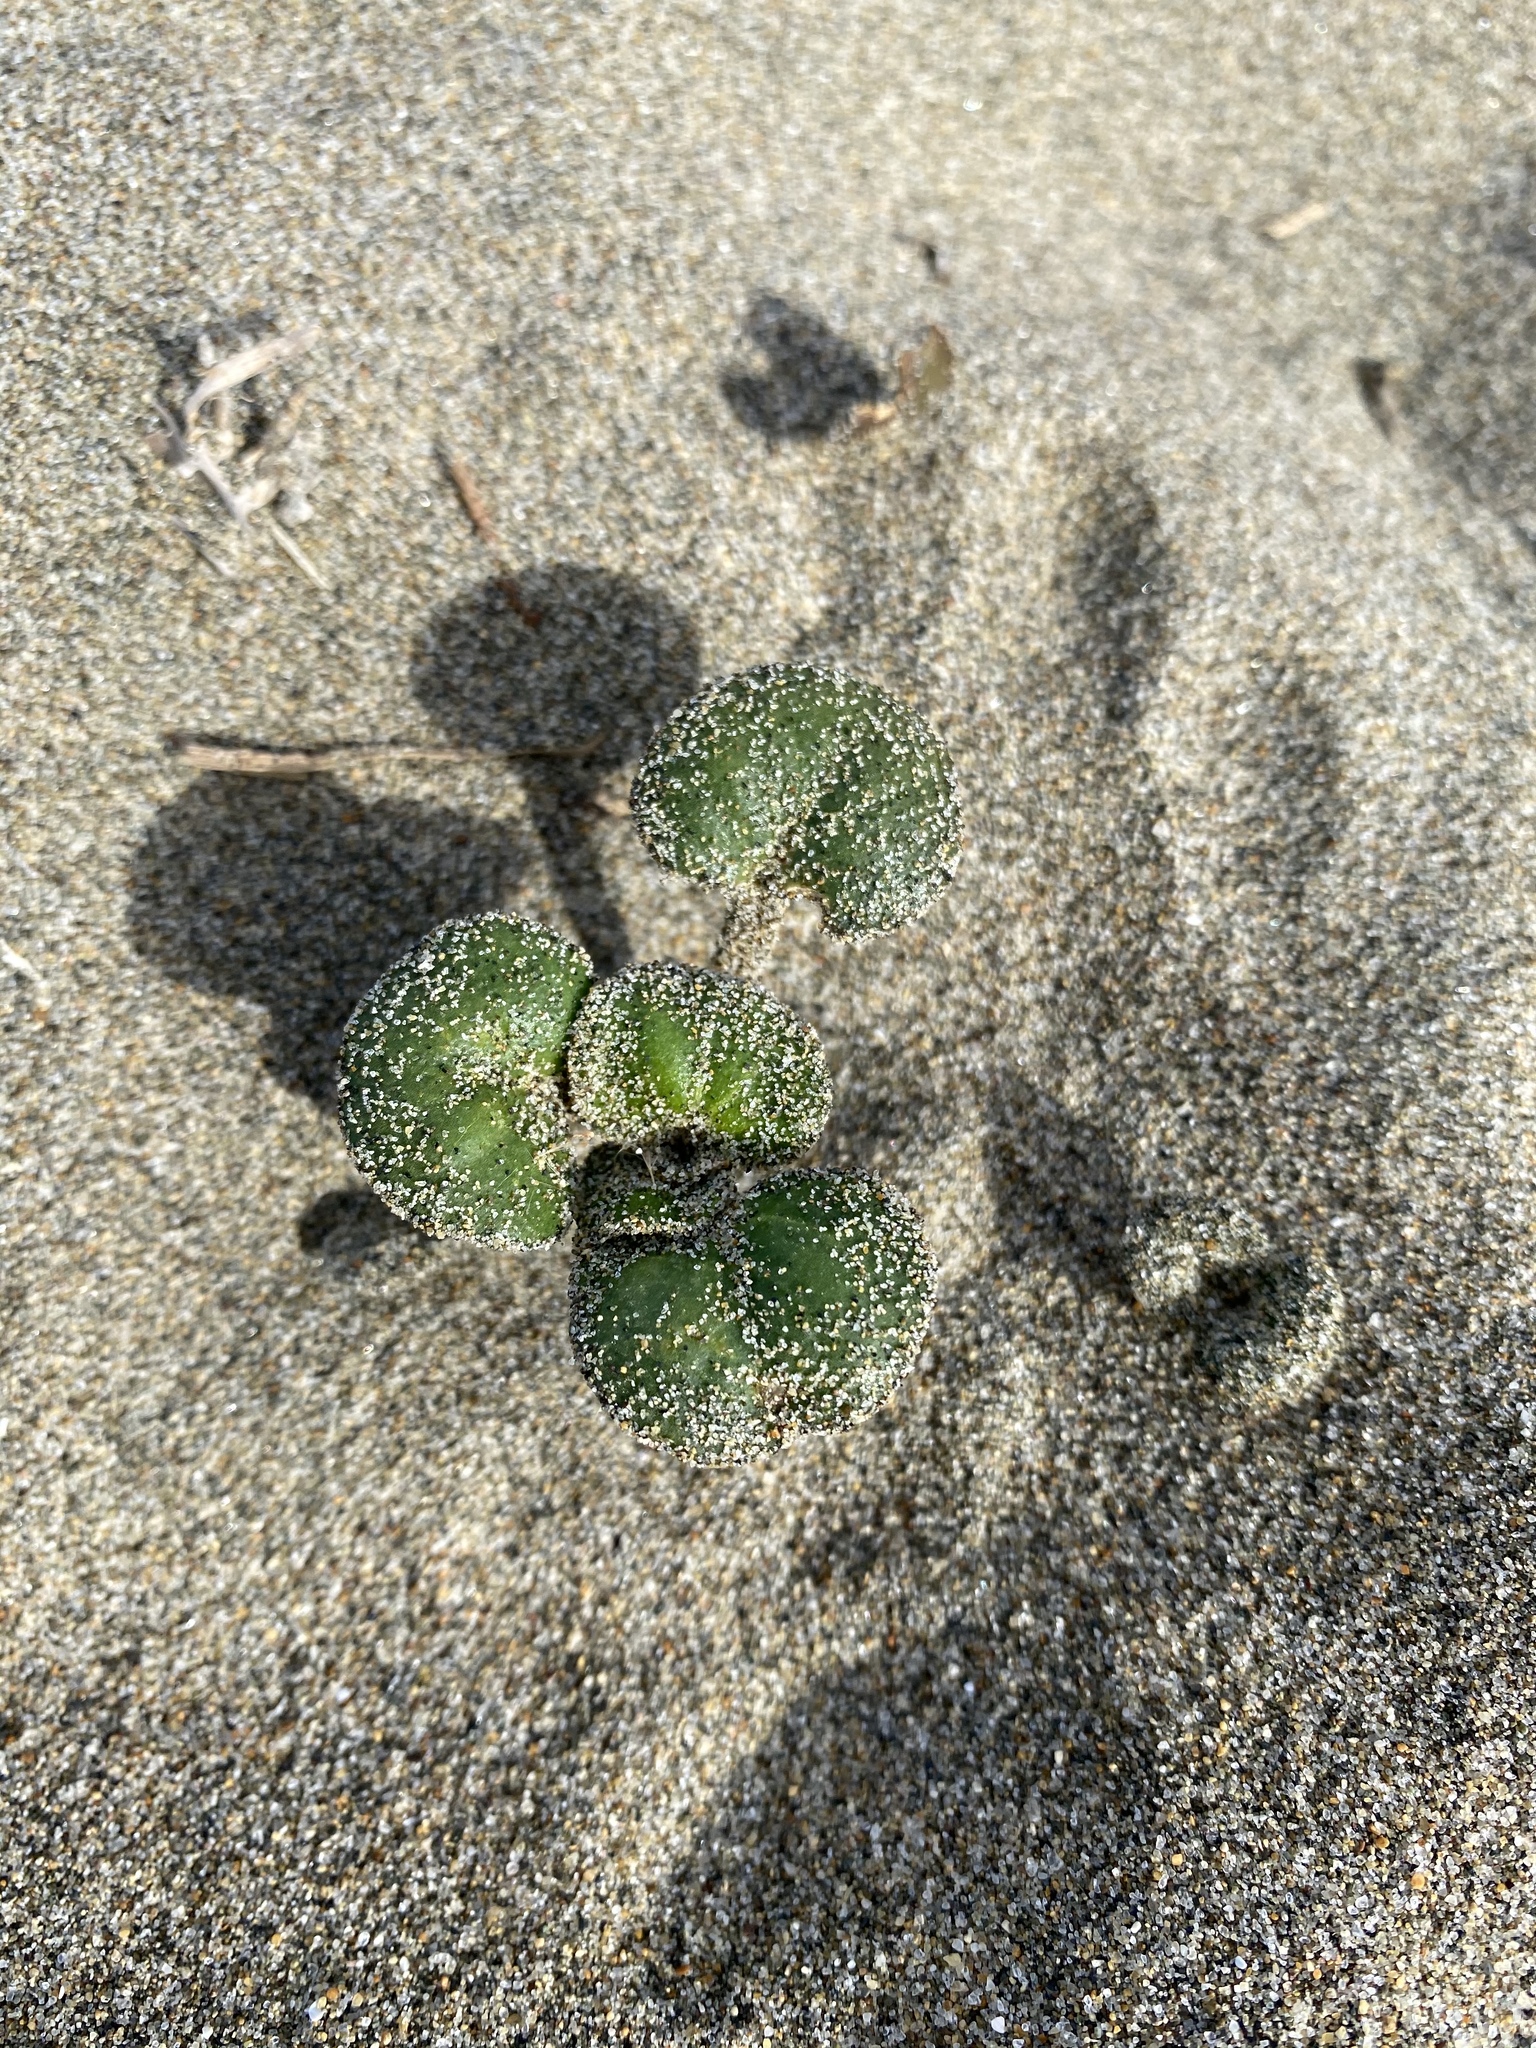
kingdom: Plantae
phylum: Tracheophyta
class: Magnoliopsida
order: Caryophyllales
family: Nyctaginaceae
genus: Abronia
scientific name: Abronia latifolia
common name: Yellow sand-verbena
